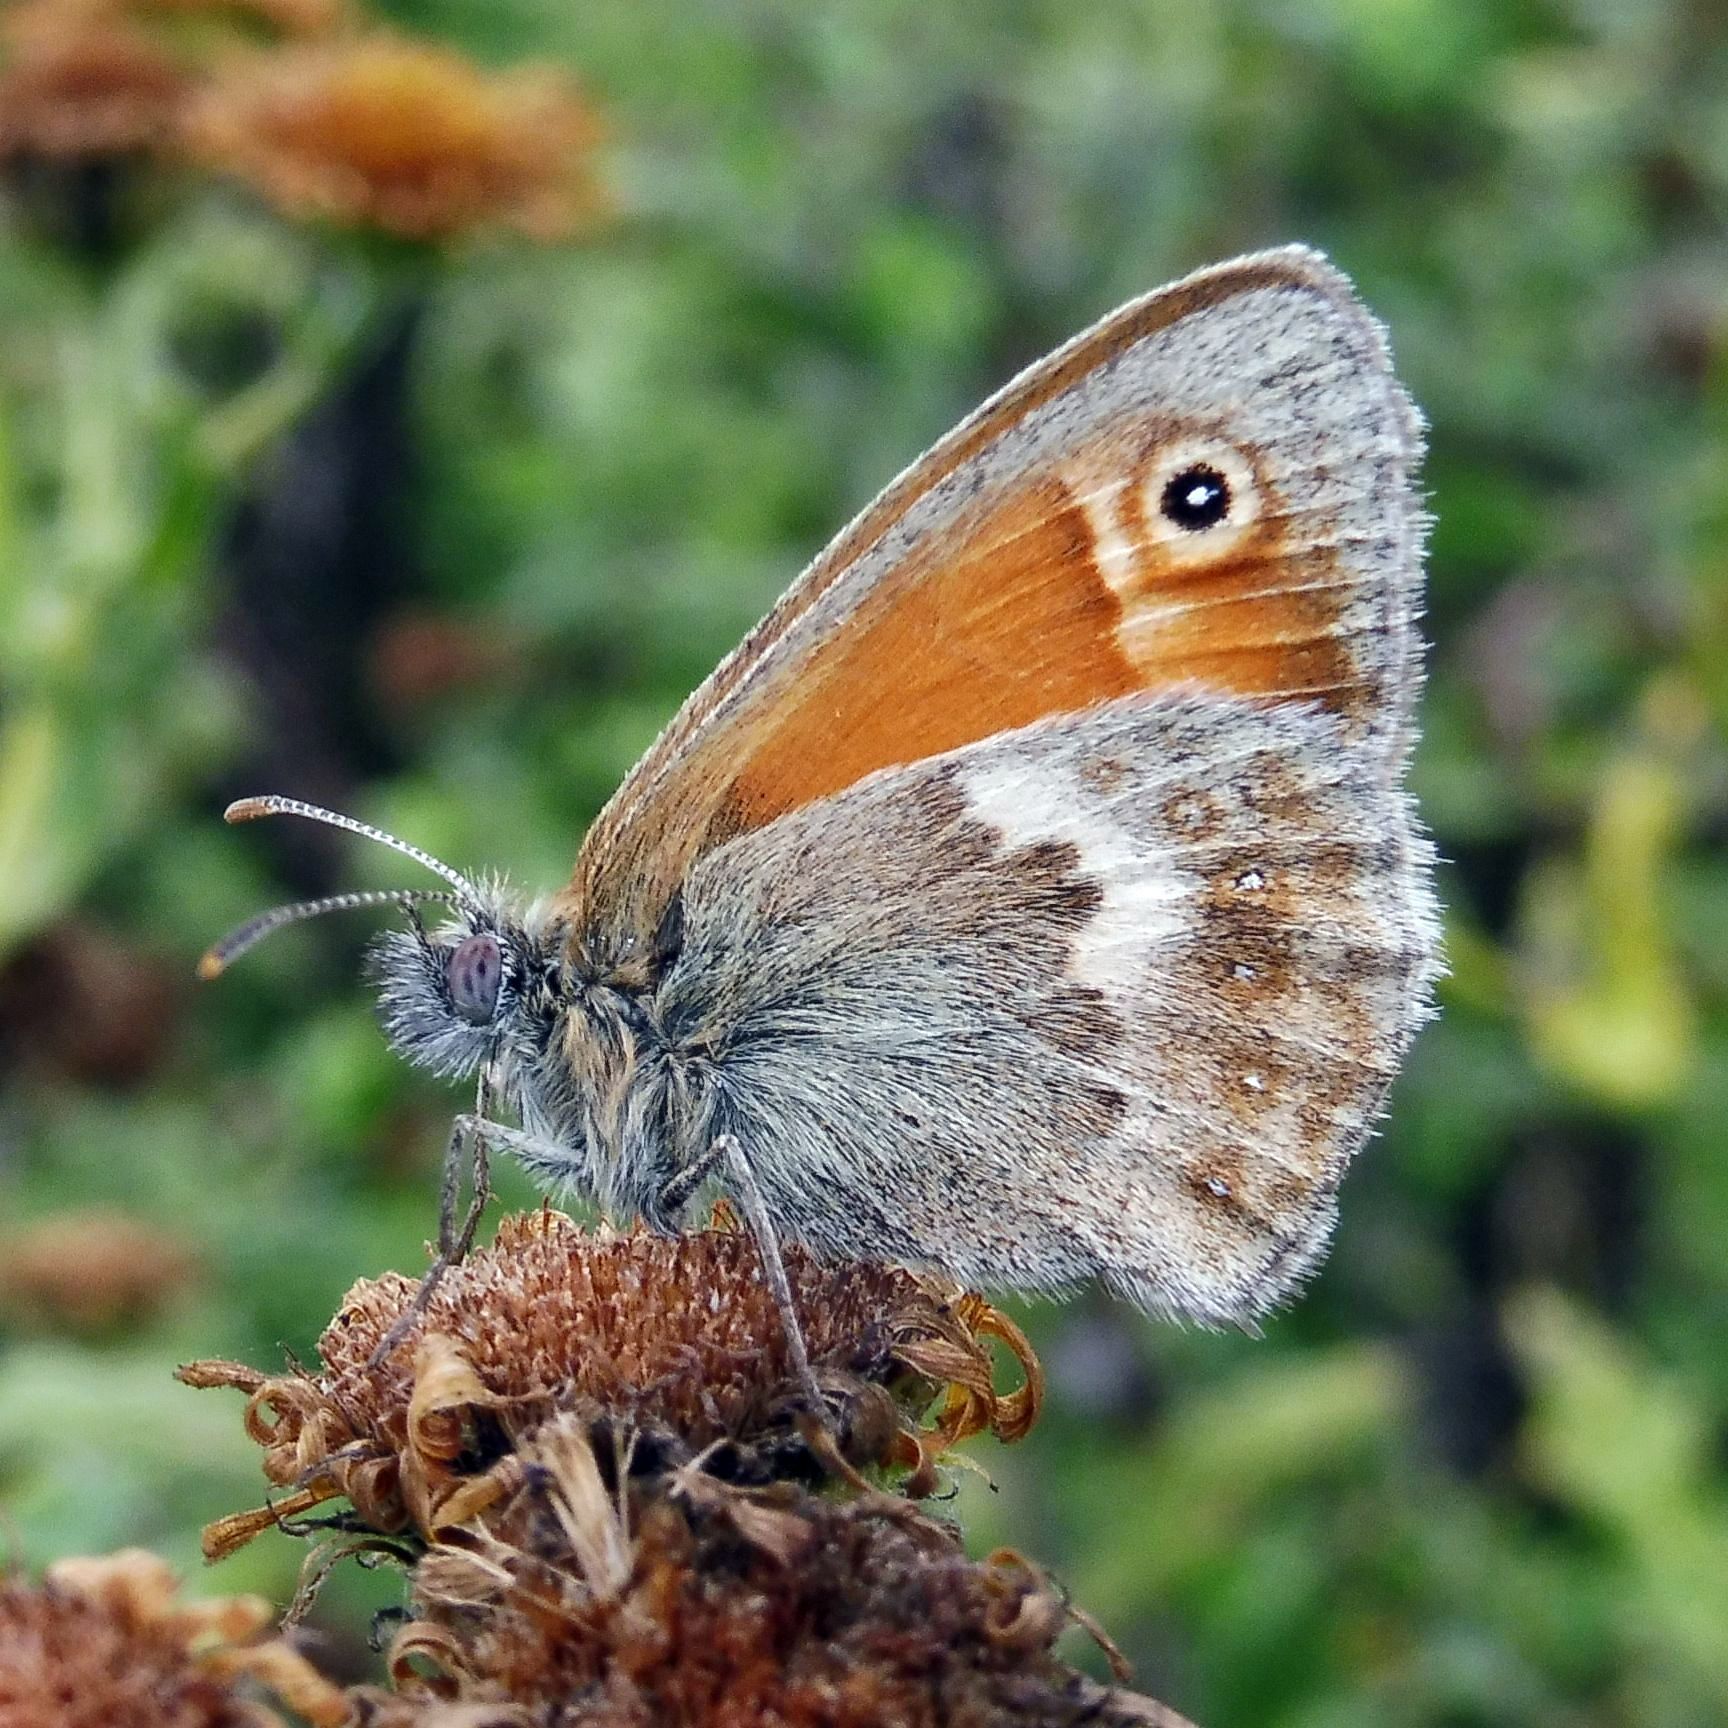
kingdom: Animalia
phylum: Arthropoda
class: Insecta
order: Lepidoptera
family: Nymphalidae
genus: Coenonympha
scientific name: Coenonympha pamphilus
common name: Small heath
